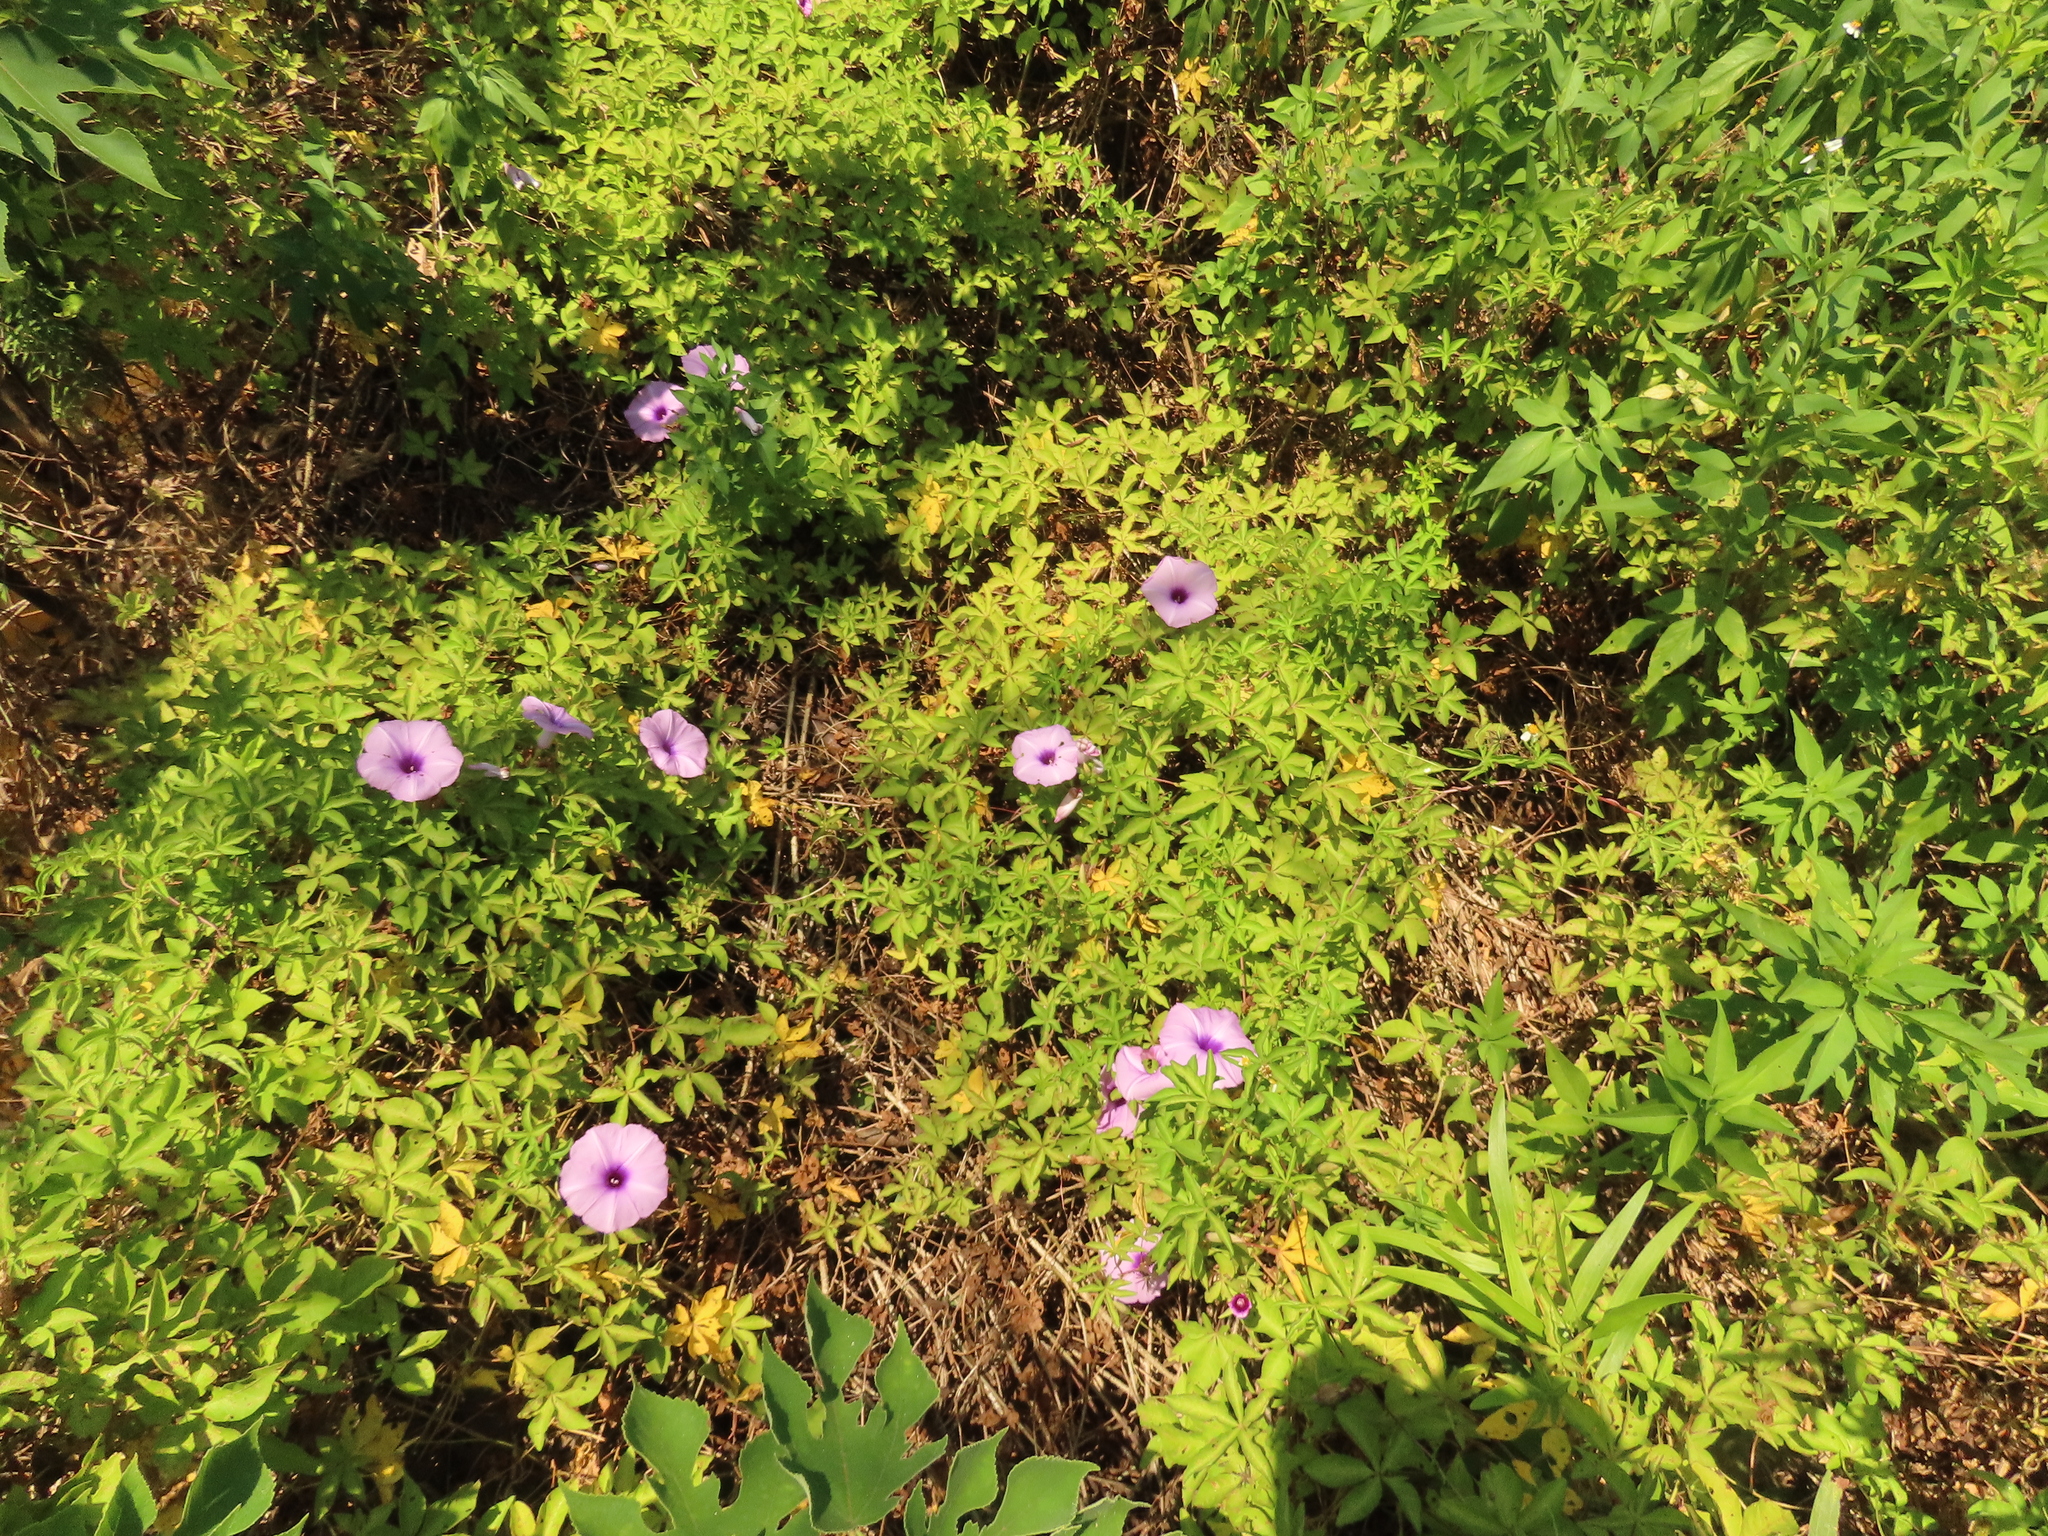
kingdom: Plantae
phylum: Tracheophyta
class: Magnoliopsida
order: Solanales
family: Convolvulaceae
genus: Ipomoea
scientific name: Ipomoea cairica
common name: Mile a minute vine
